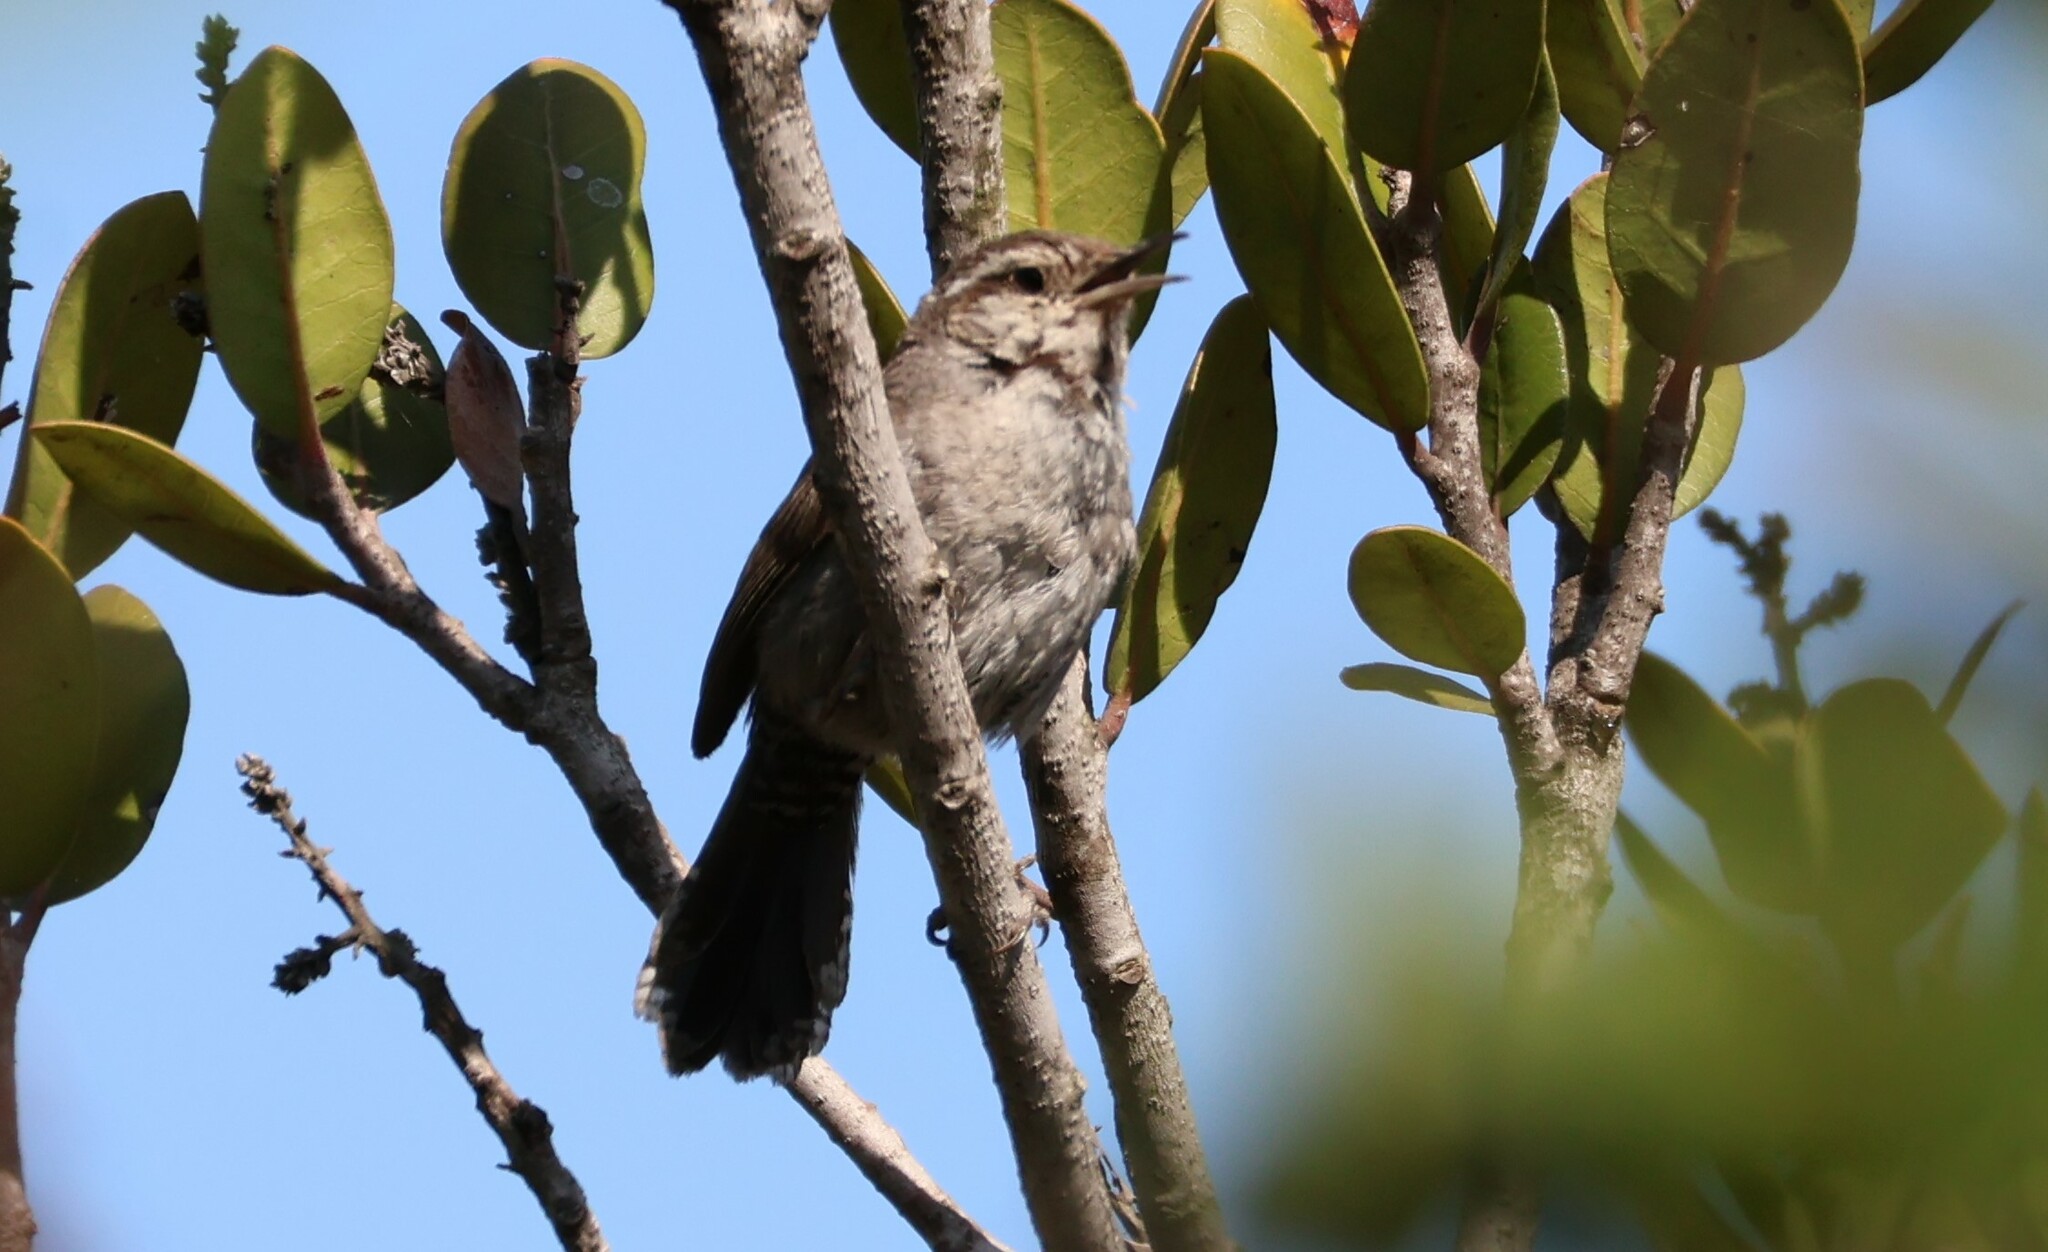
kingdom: Animalia
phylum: Chordata
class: Aves
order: Passeriformes
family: Troglodytidae
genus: Thryomanes
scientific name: Thryomanes bewickii
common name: Bewick's wren
